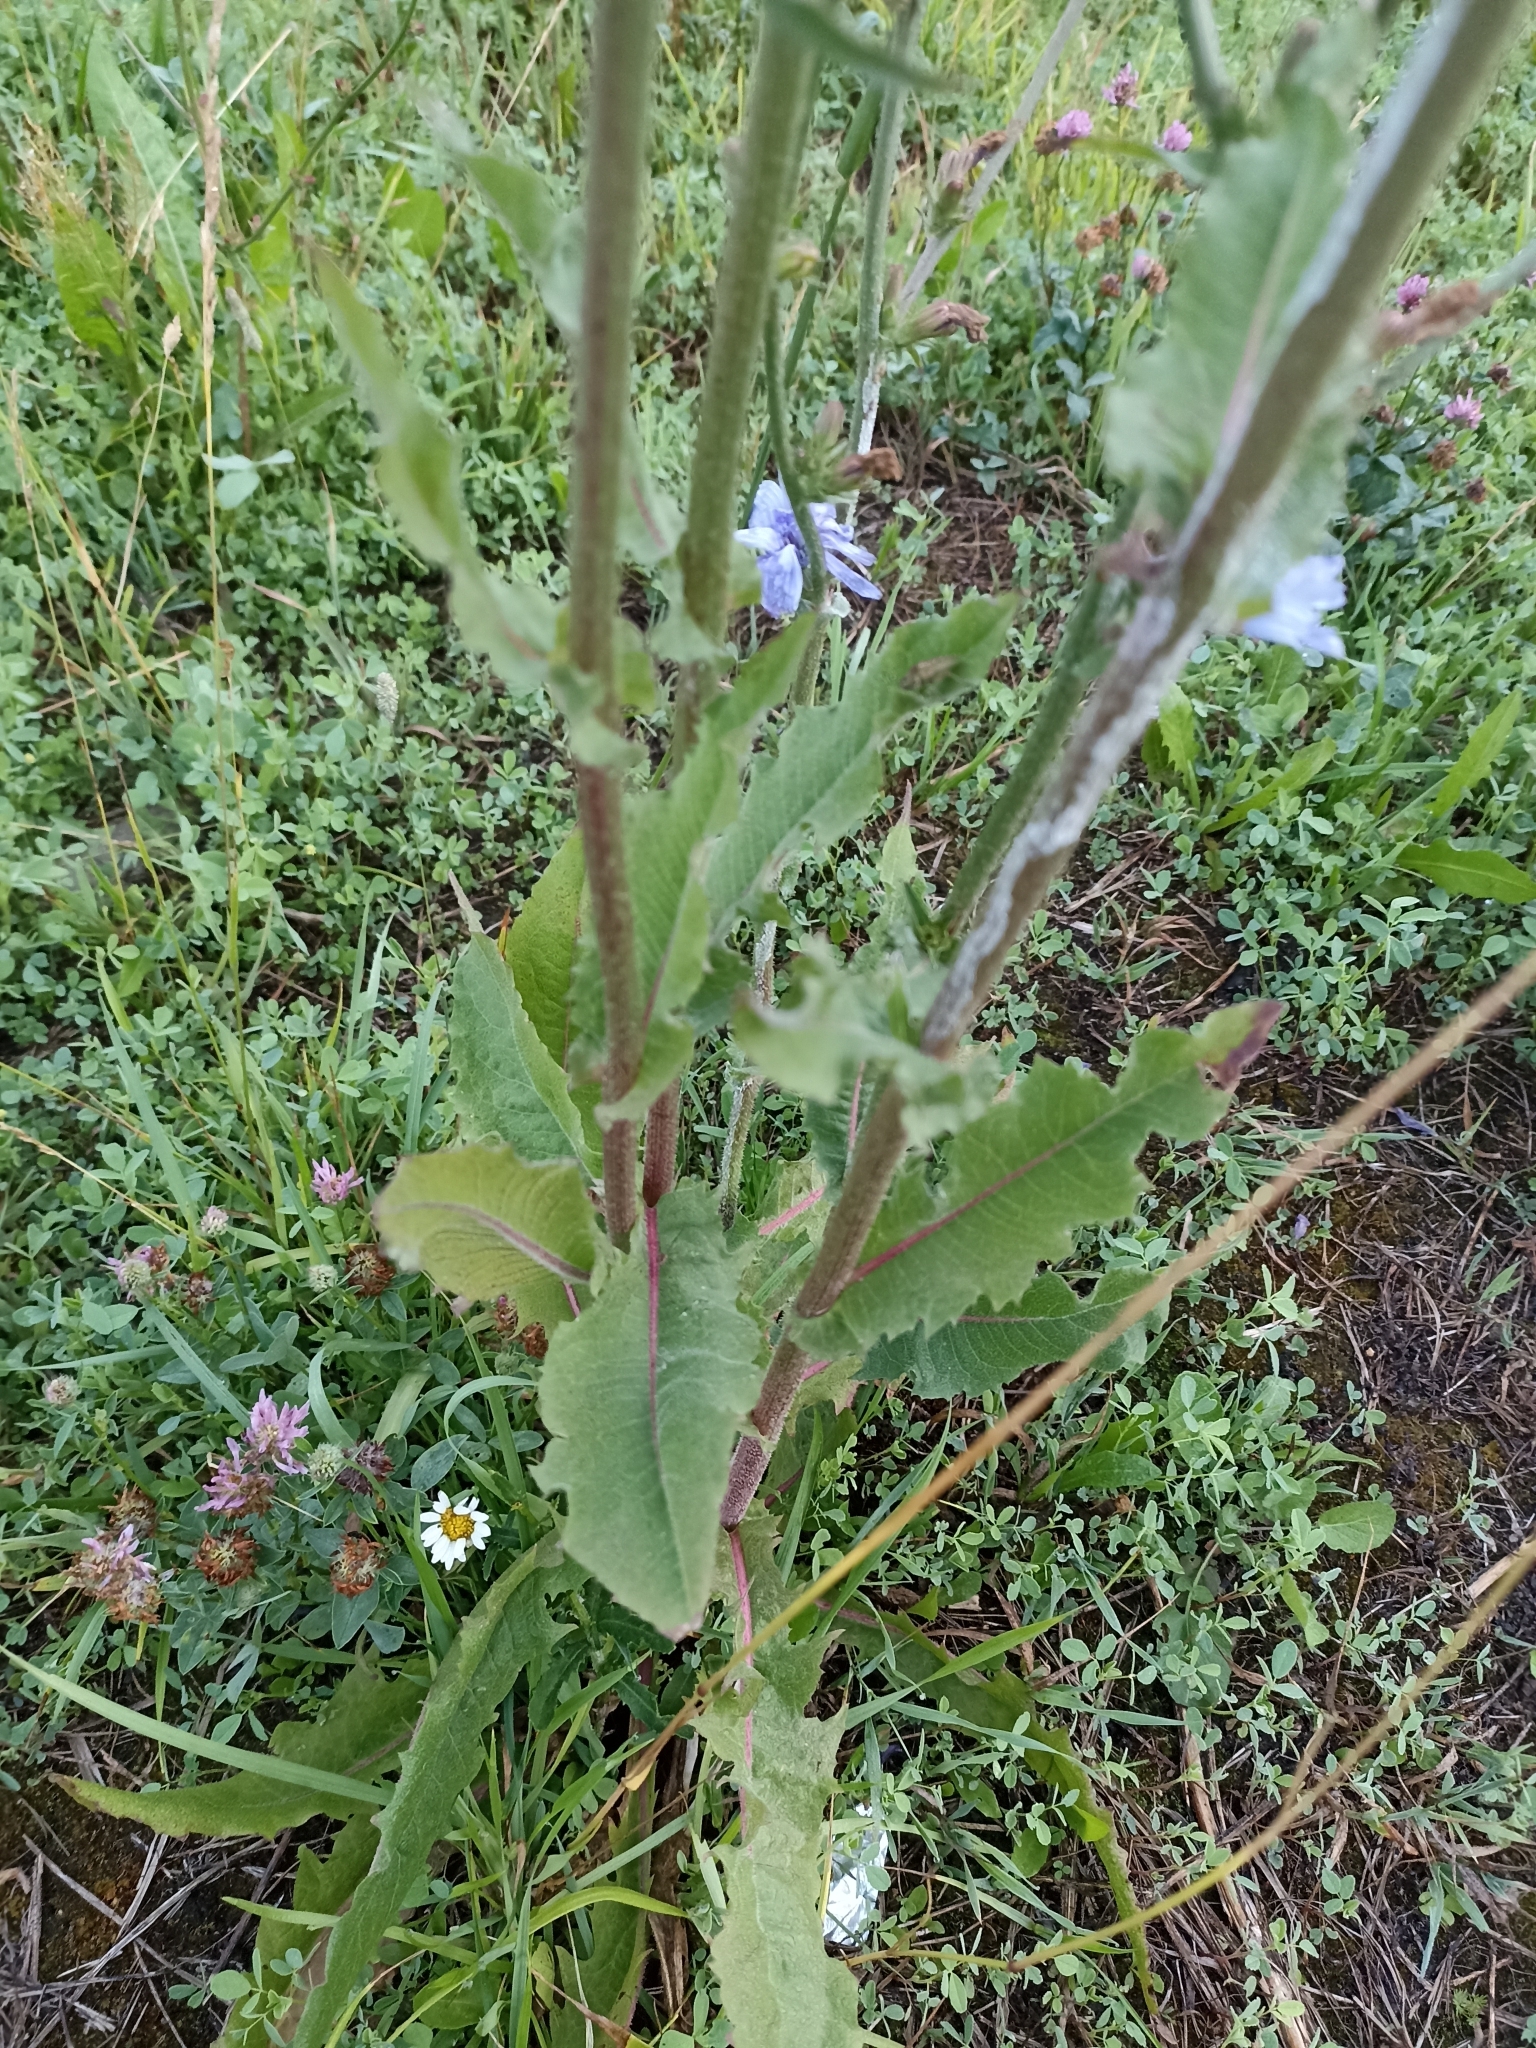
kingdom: Plantae
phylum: Tracheophyta
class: Magnoliopsida
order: Asterales
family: Asteraceae
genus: Cichorium
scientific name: Cichorium intybus
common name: Chicory
